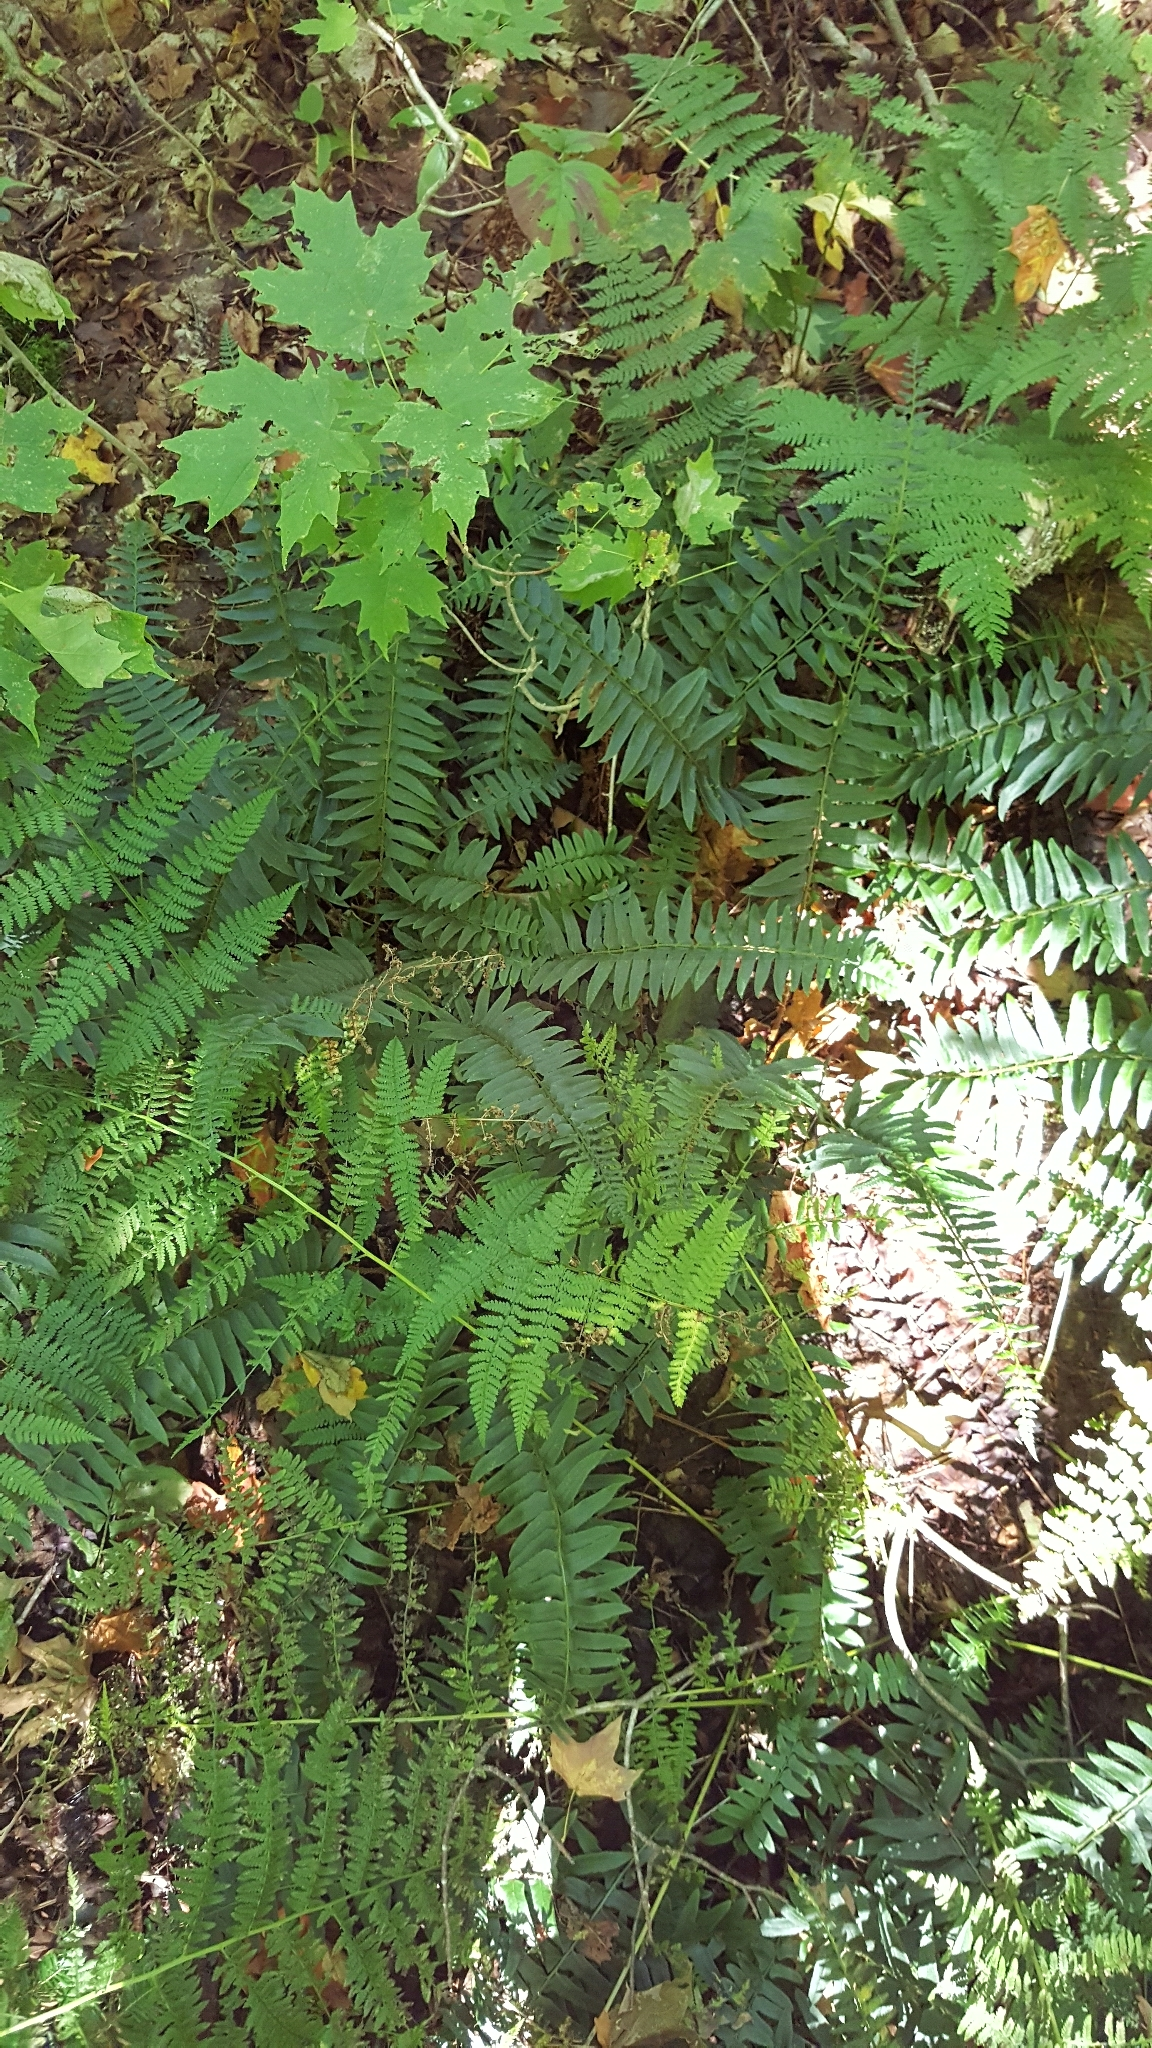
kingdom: Plantae
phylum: Tracheophyta
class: Polypodiopsida
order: Polypodiales
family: Dryopteridaceae
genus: Polystichum
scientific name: Polystichum acrostichoides
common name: Christmas fern
